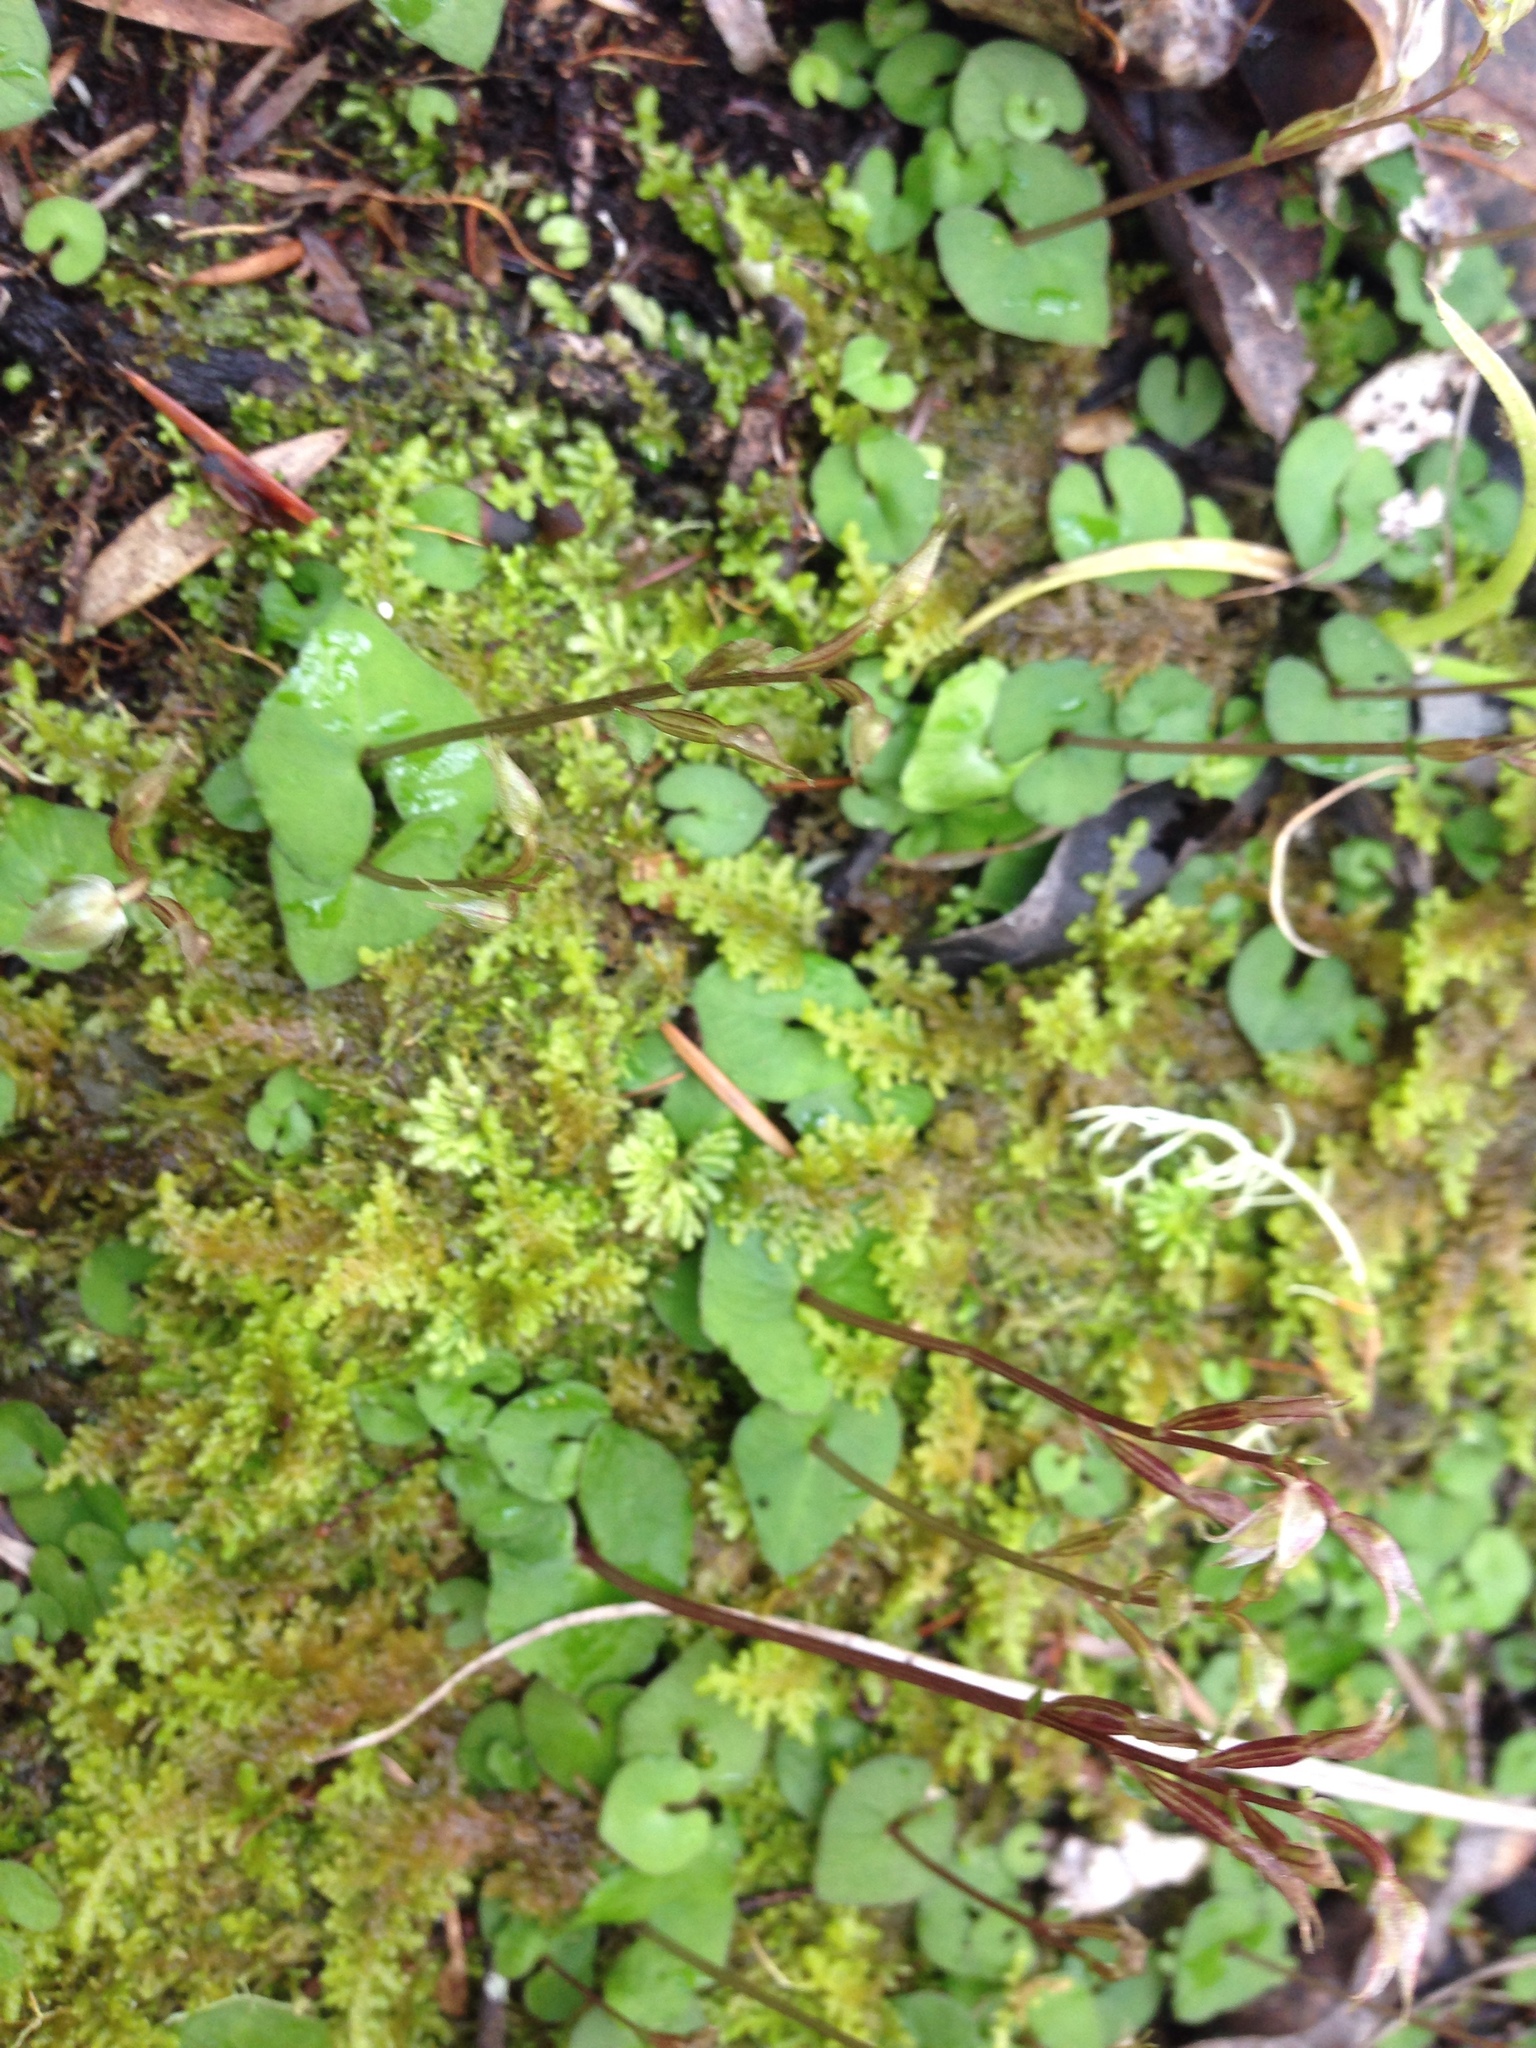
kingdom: Plantae
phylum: Tracheophyta
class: Liliopsida
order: Asparagales
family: Orchidaceae
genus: Acianthus
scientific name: Acianthus sinclairii
